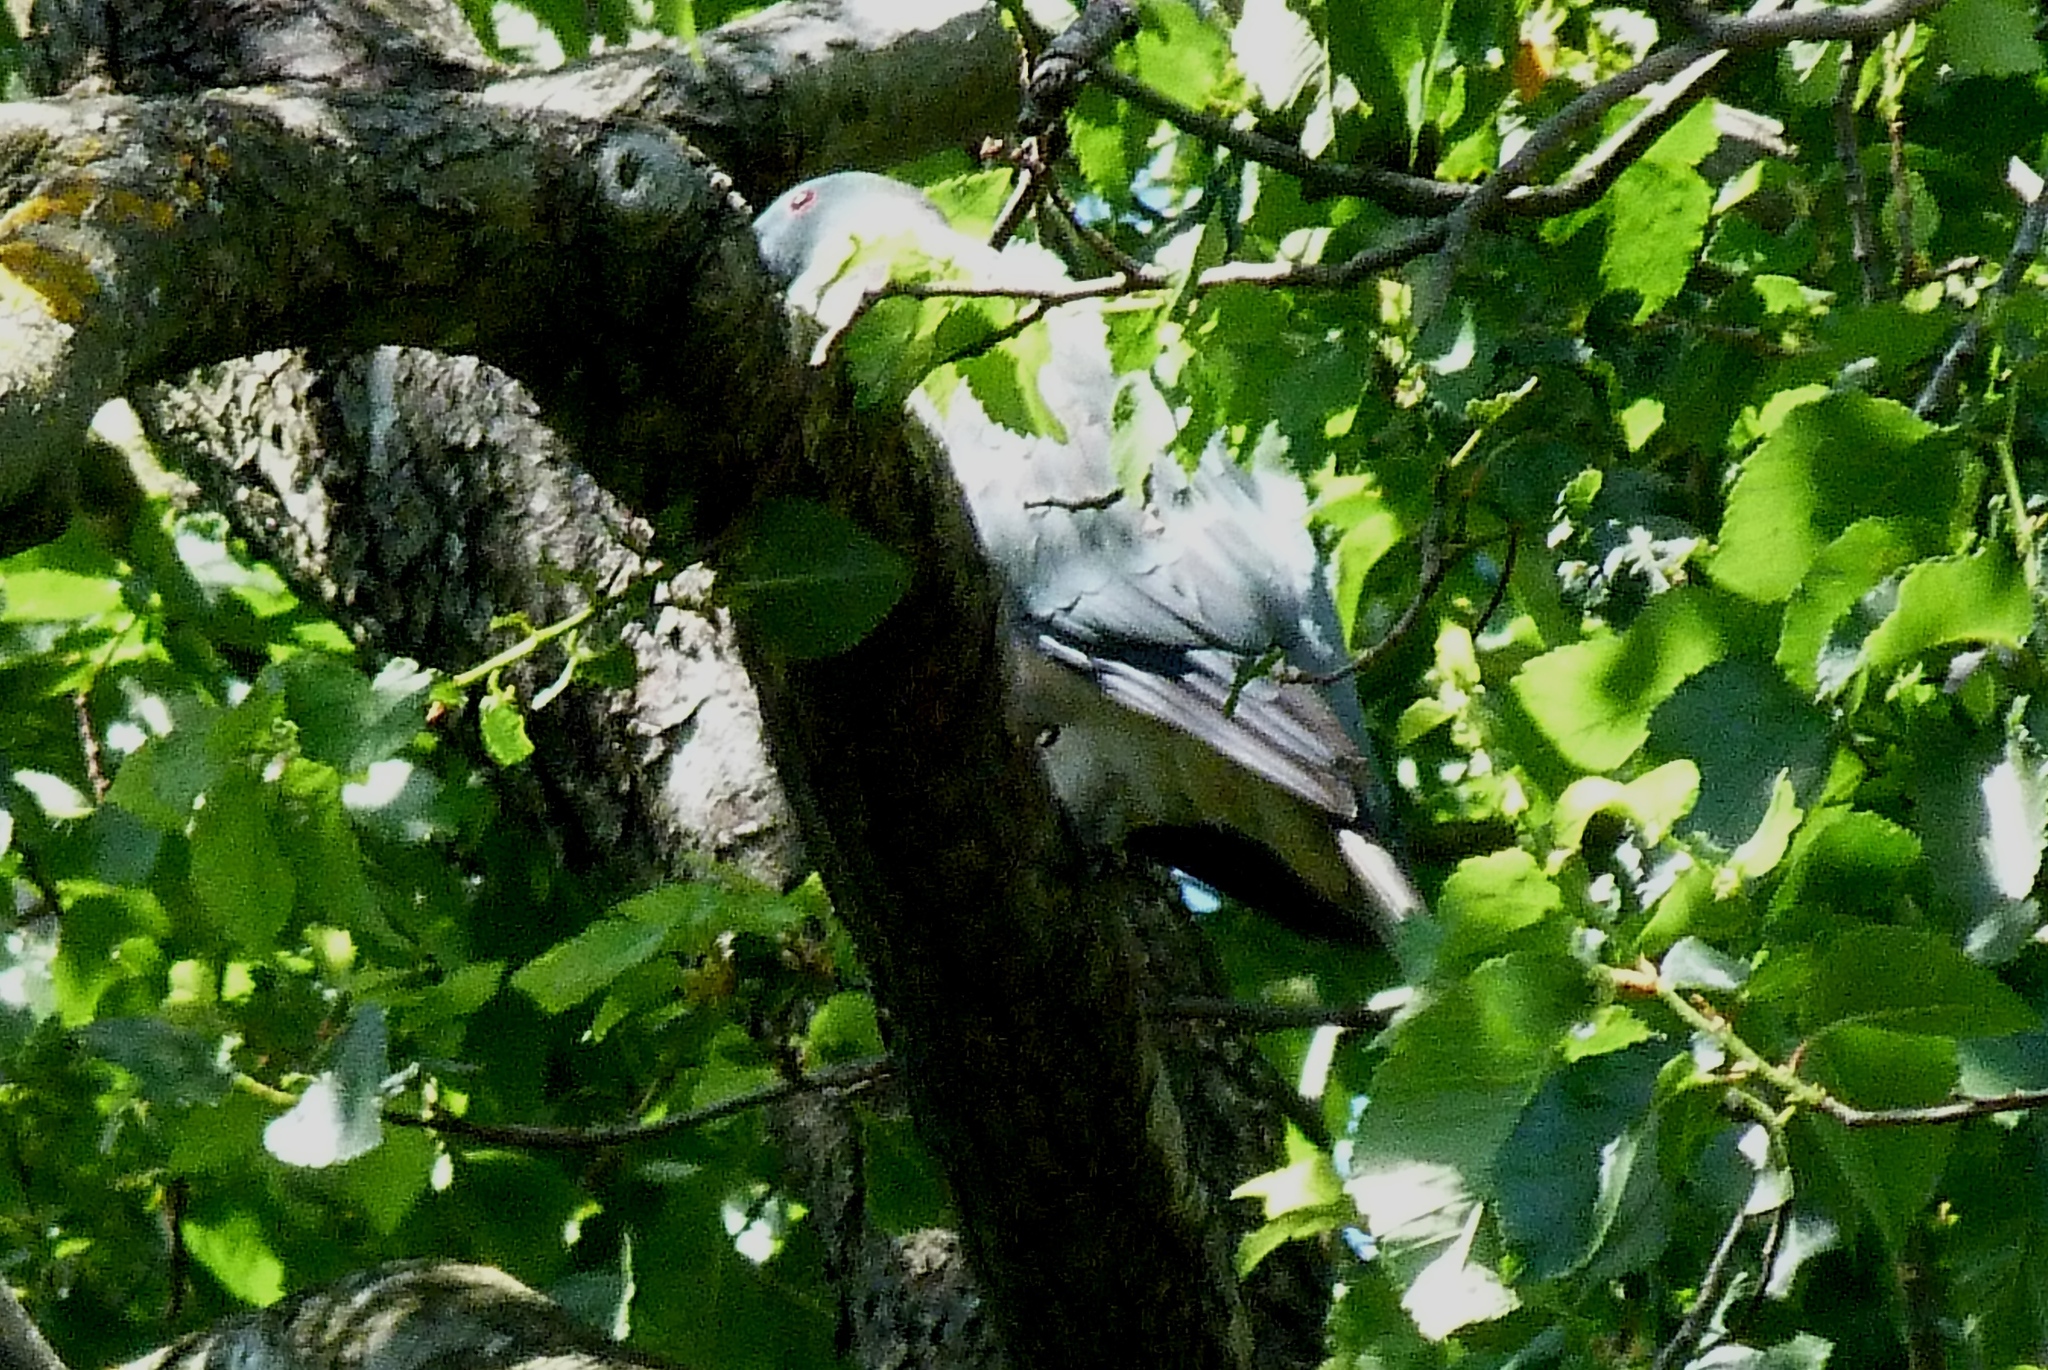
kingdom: Animalia
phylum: Chordata
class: Aves
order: Columbiformes
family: Columbidae
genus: Hemiphaga
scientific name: Hemiphaga novaeseelandiae
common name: New zealand pigeon
